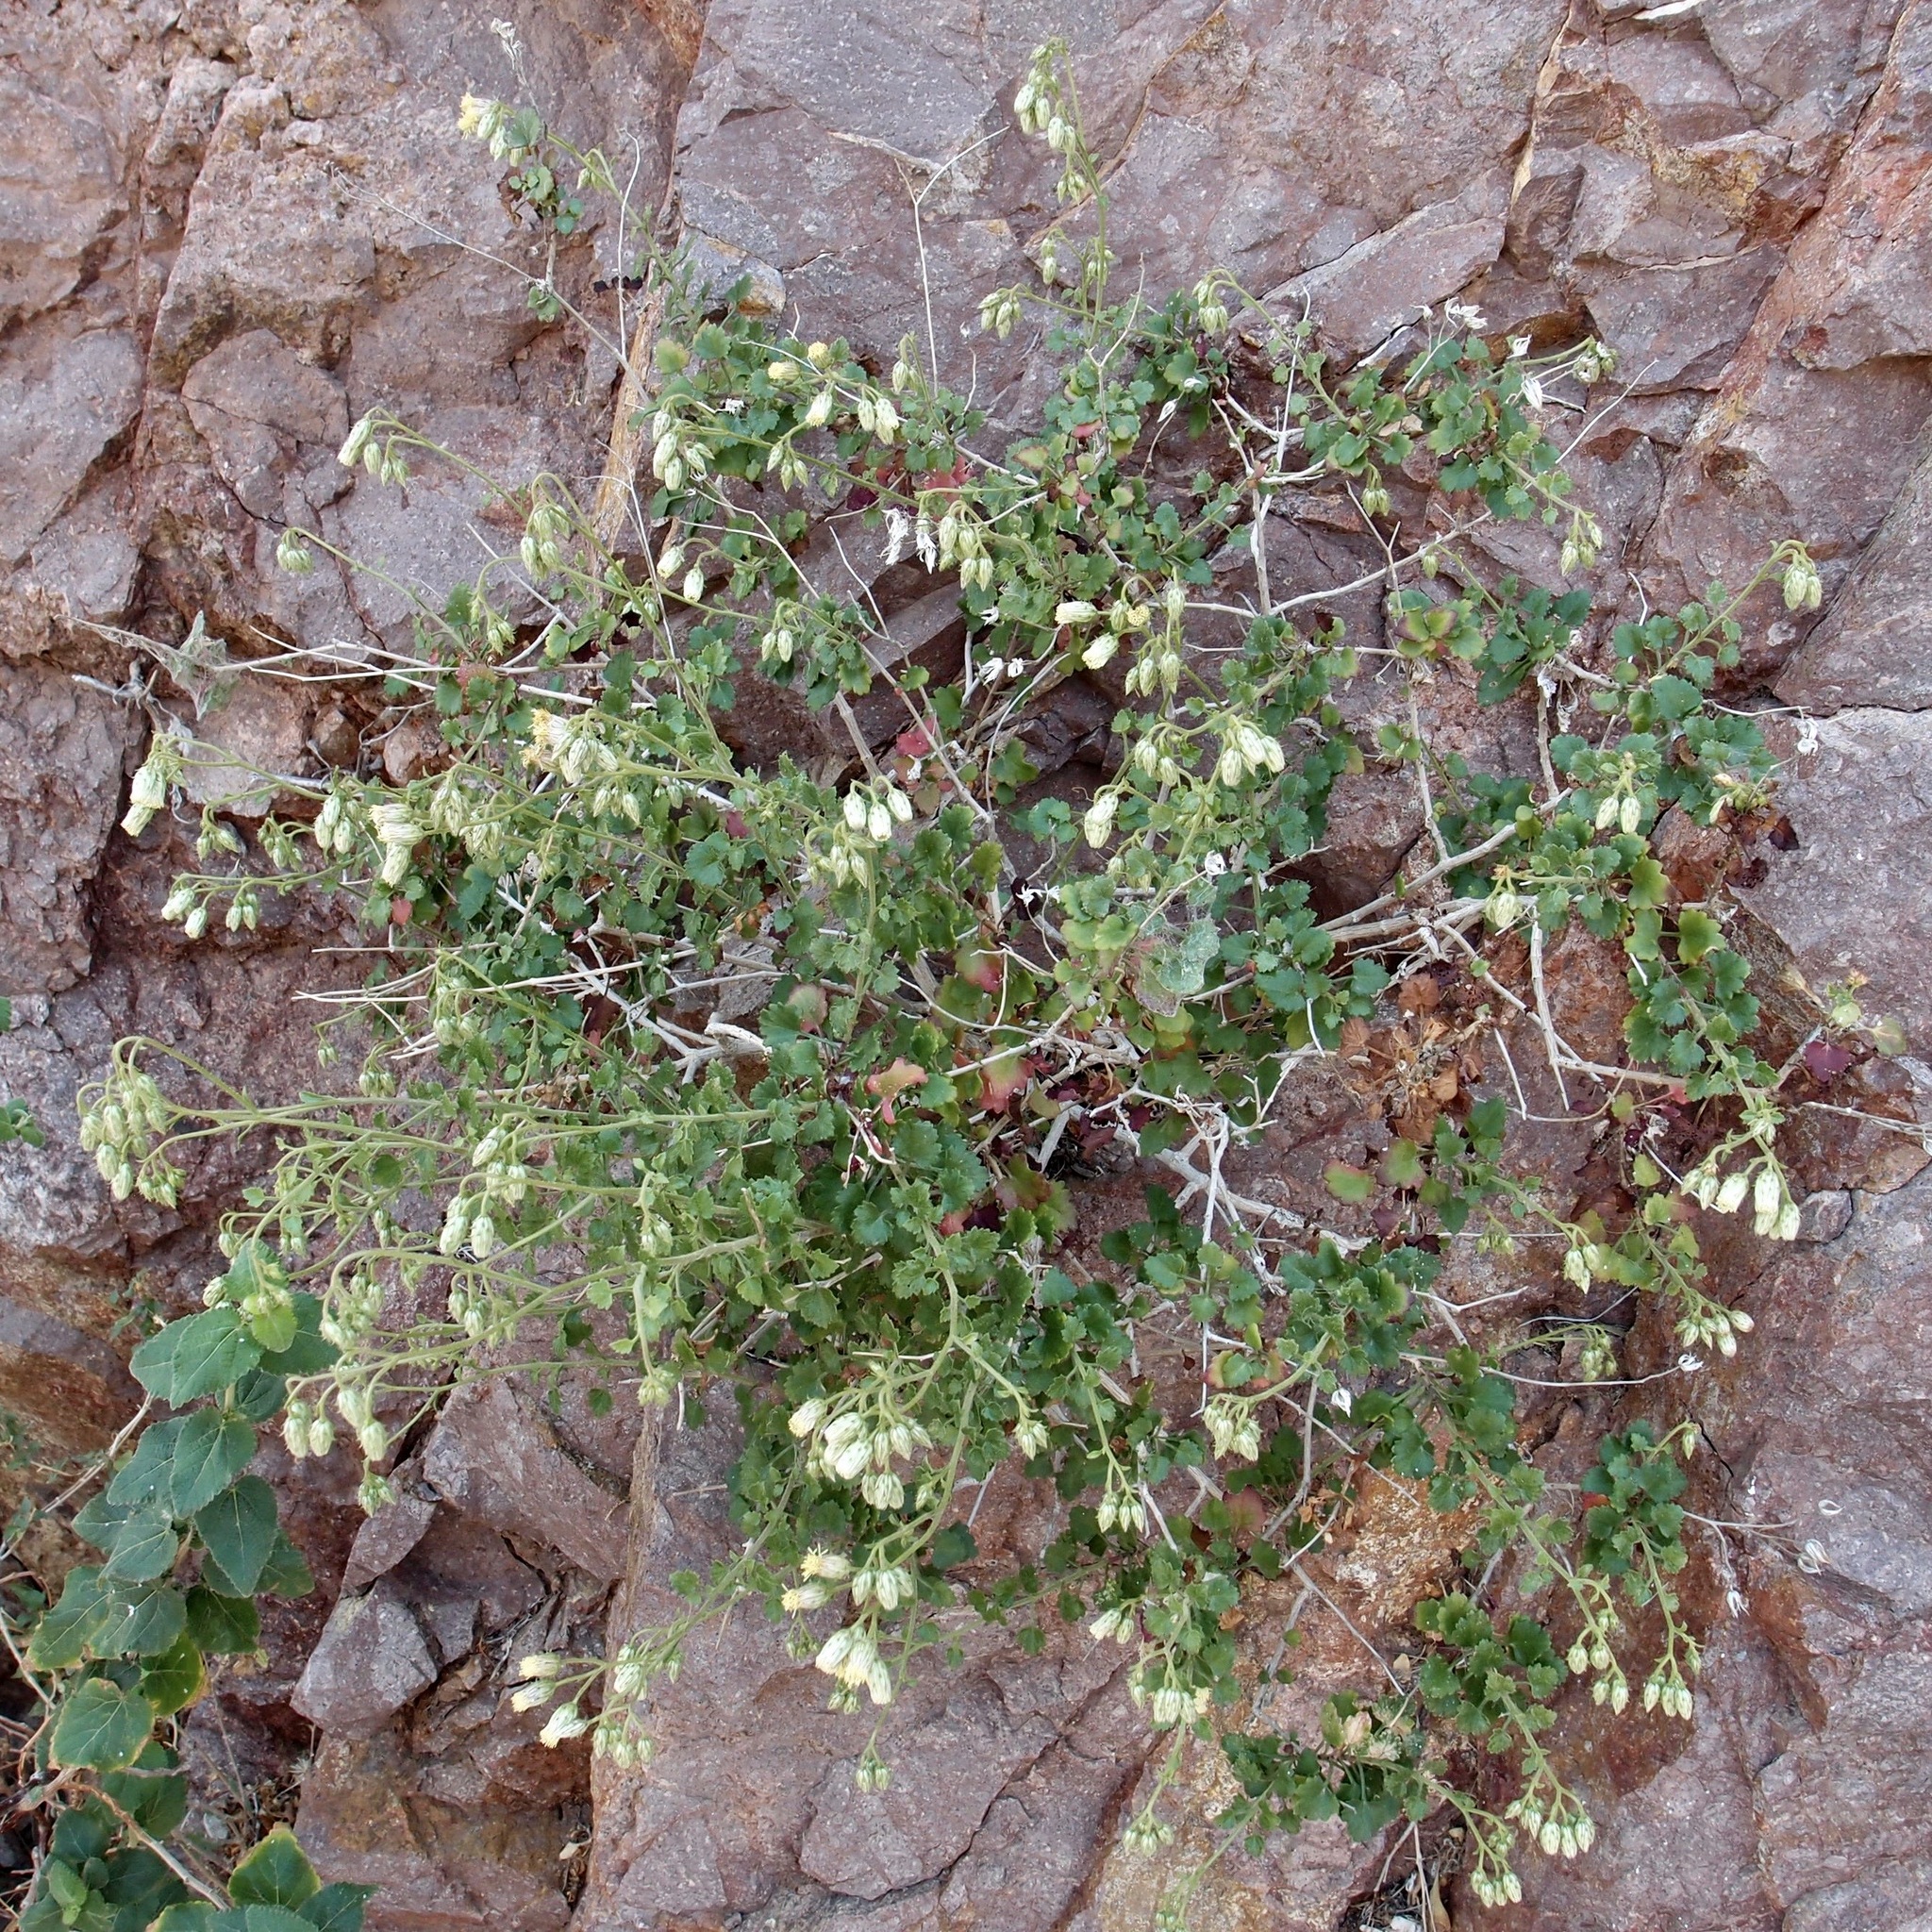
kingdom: Plantae
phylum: Tracheophyta
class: Magnoliopsida
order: Asterales
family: Asteraceae
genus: Pleurocoronis
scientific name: Pleurocoronis laphamioides
